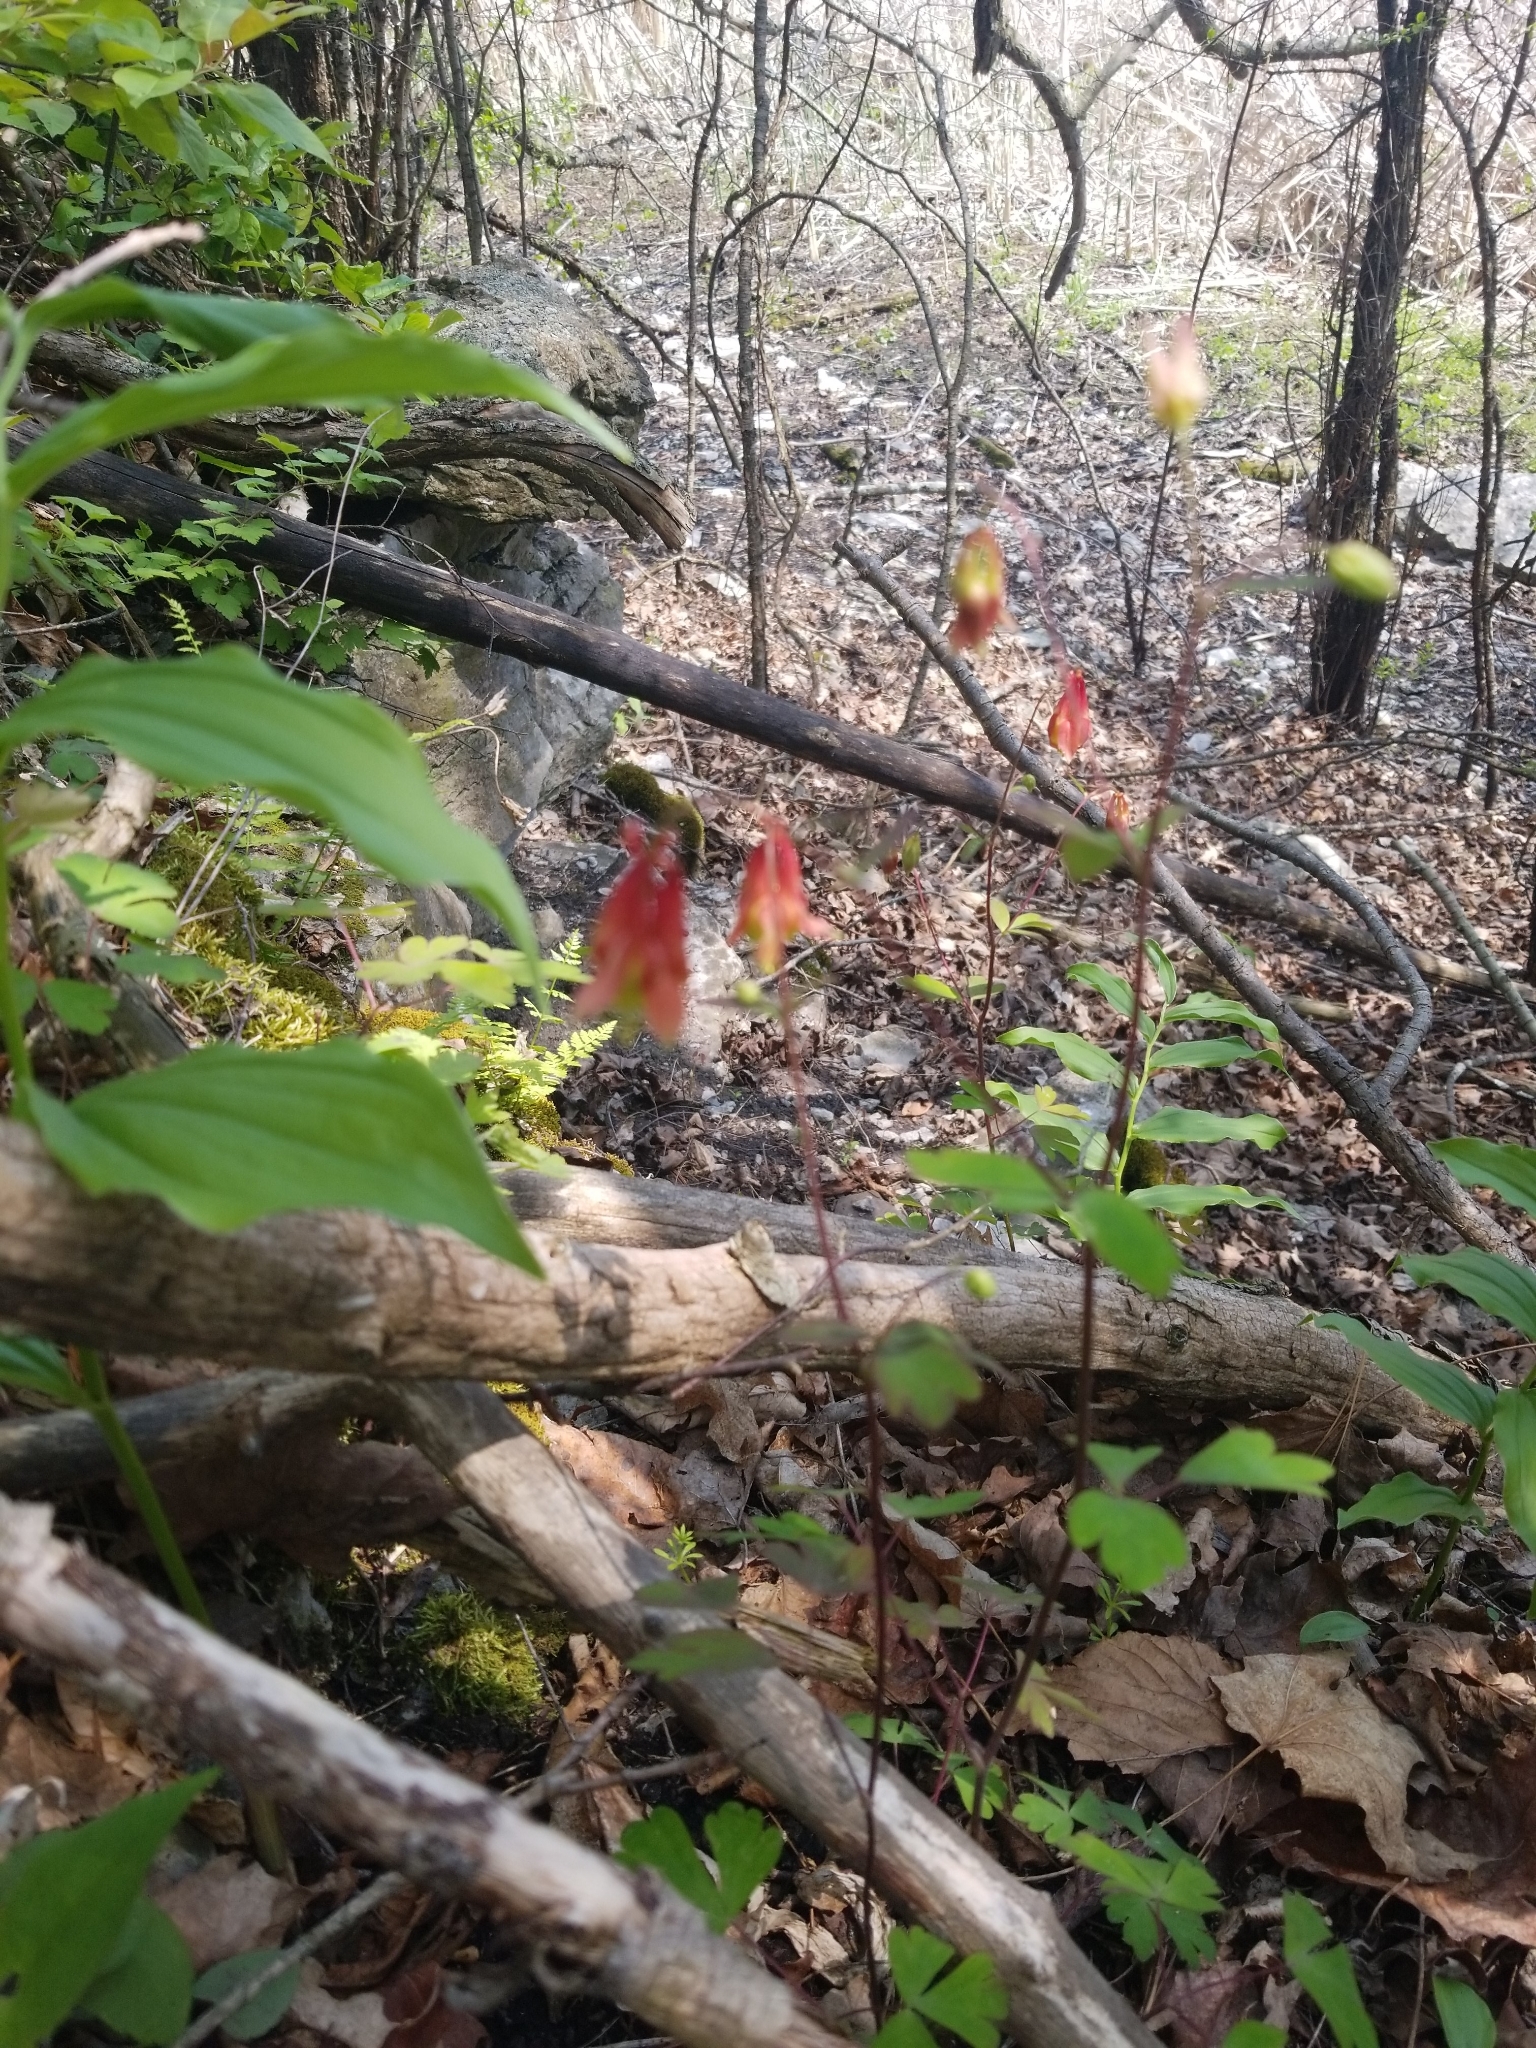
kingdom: Plantae
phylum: Tracheophyta
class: Magnoliopsida
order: Ranunculales
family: Ranunculaceae
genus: Aquilegia
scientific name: Aquilegia canadensis
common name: American columbine
